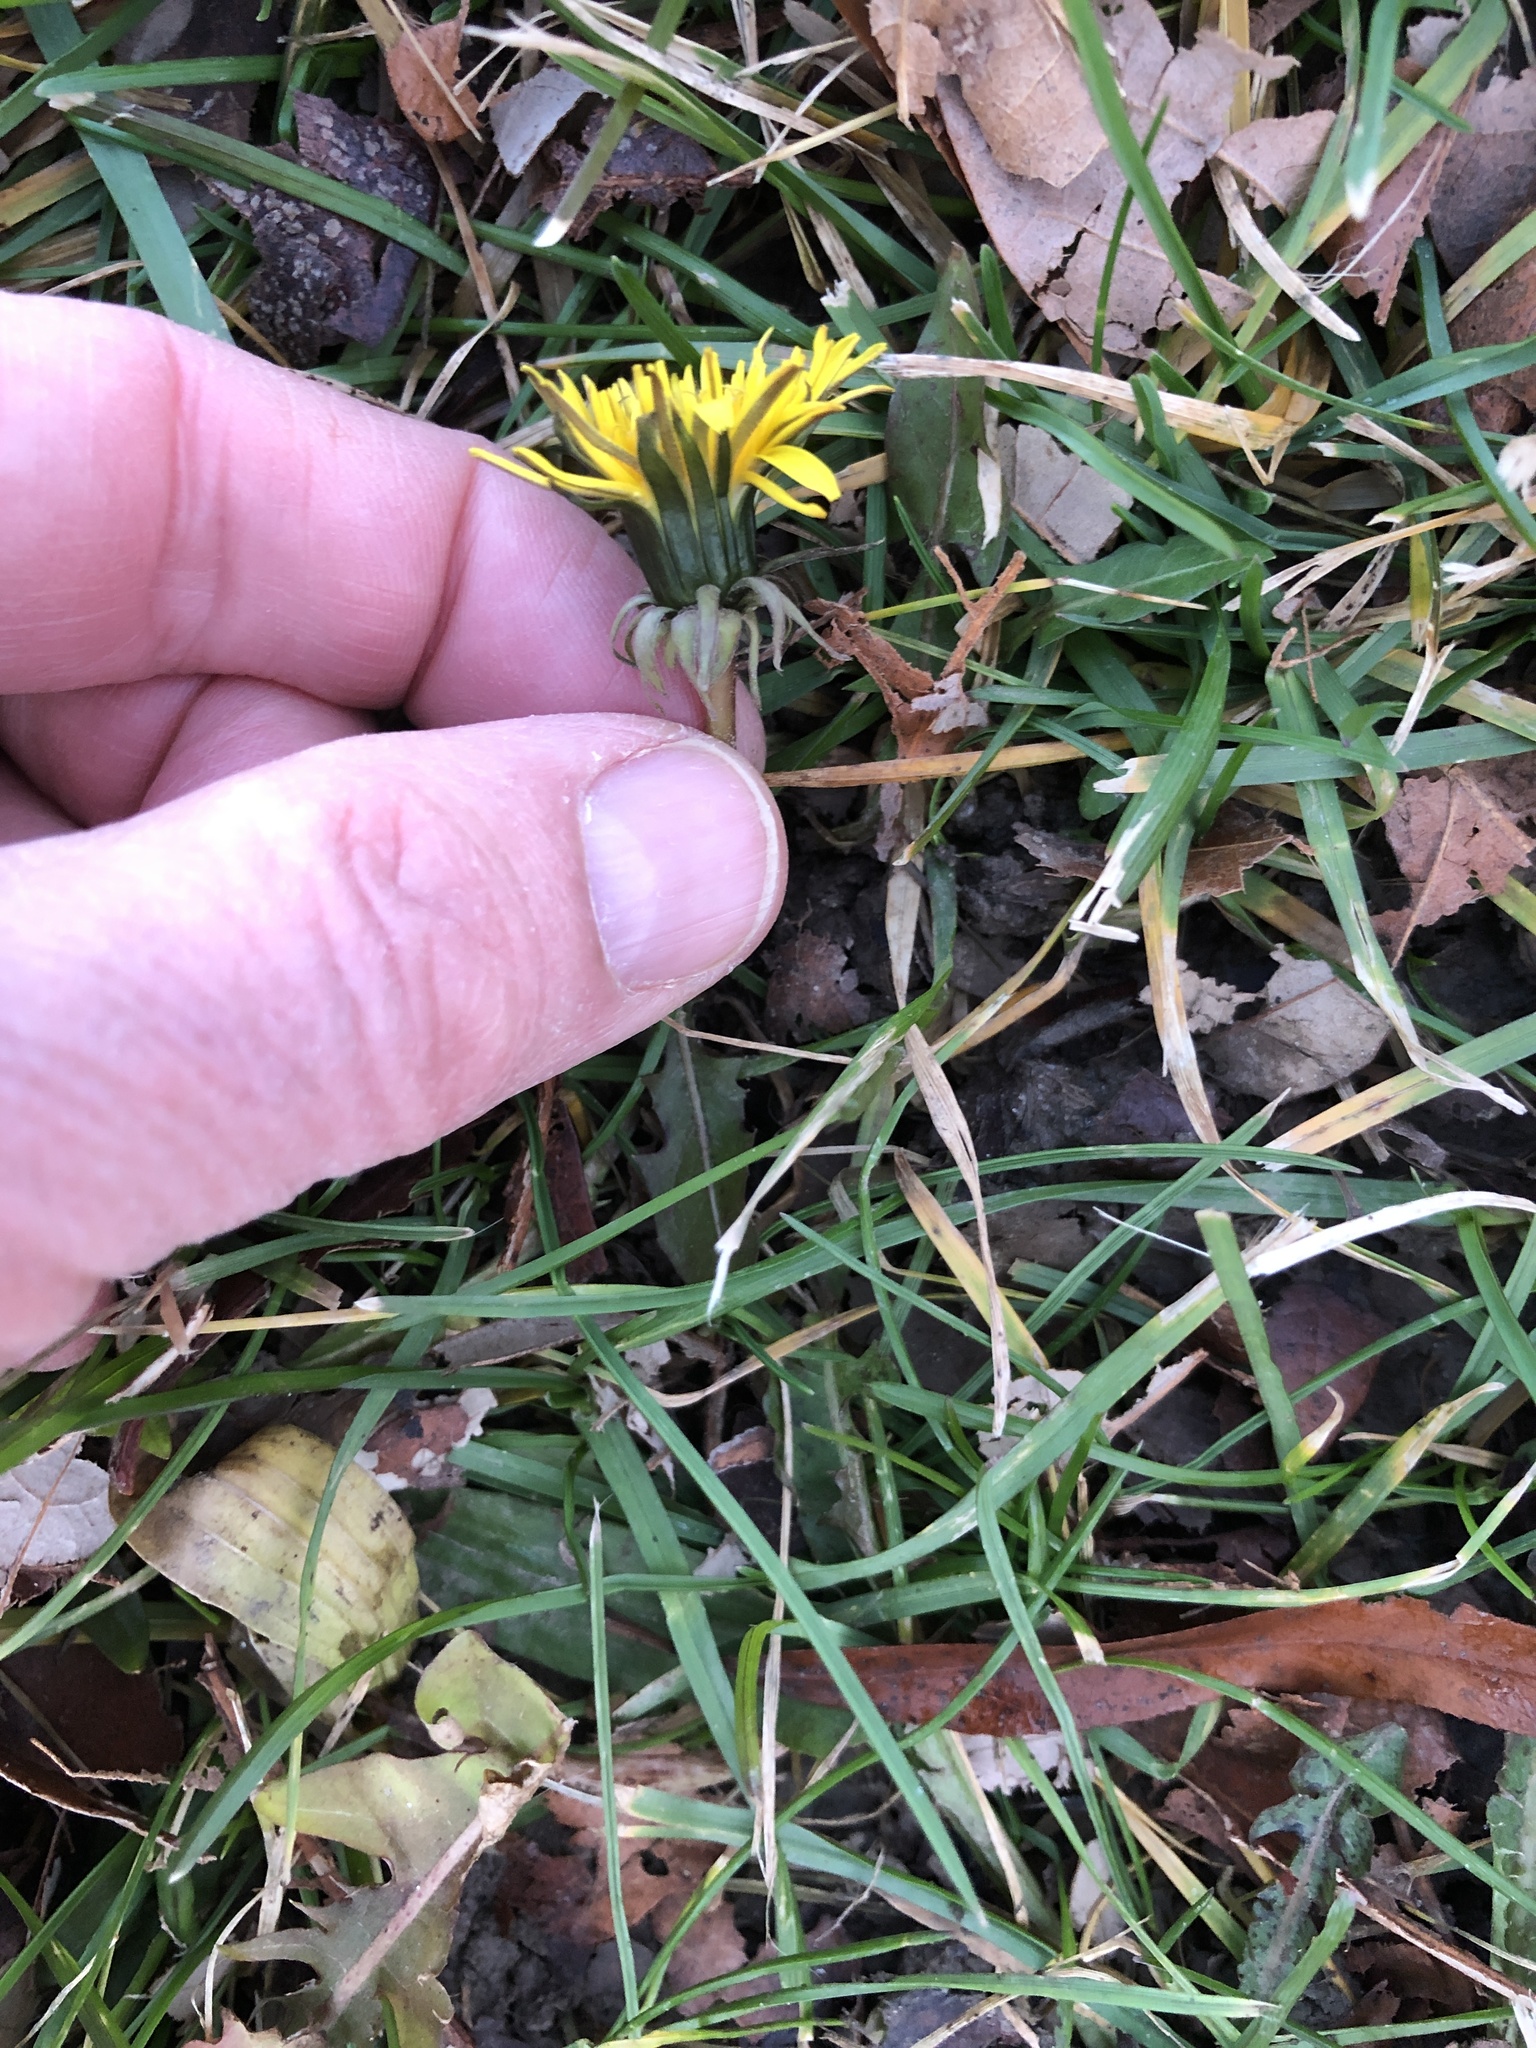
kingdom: Plantae
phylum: Tracheophyta
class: Magnoliopsida
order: Asterales
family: Asteraceae
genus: Taraxacum
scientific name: Taraxacum
